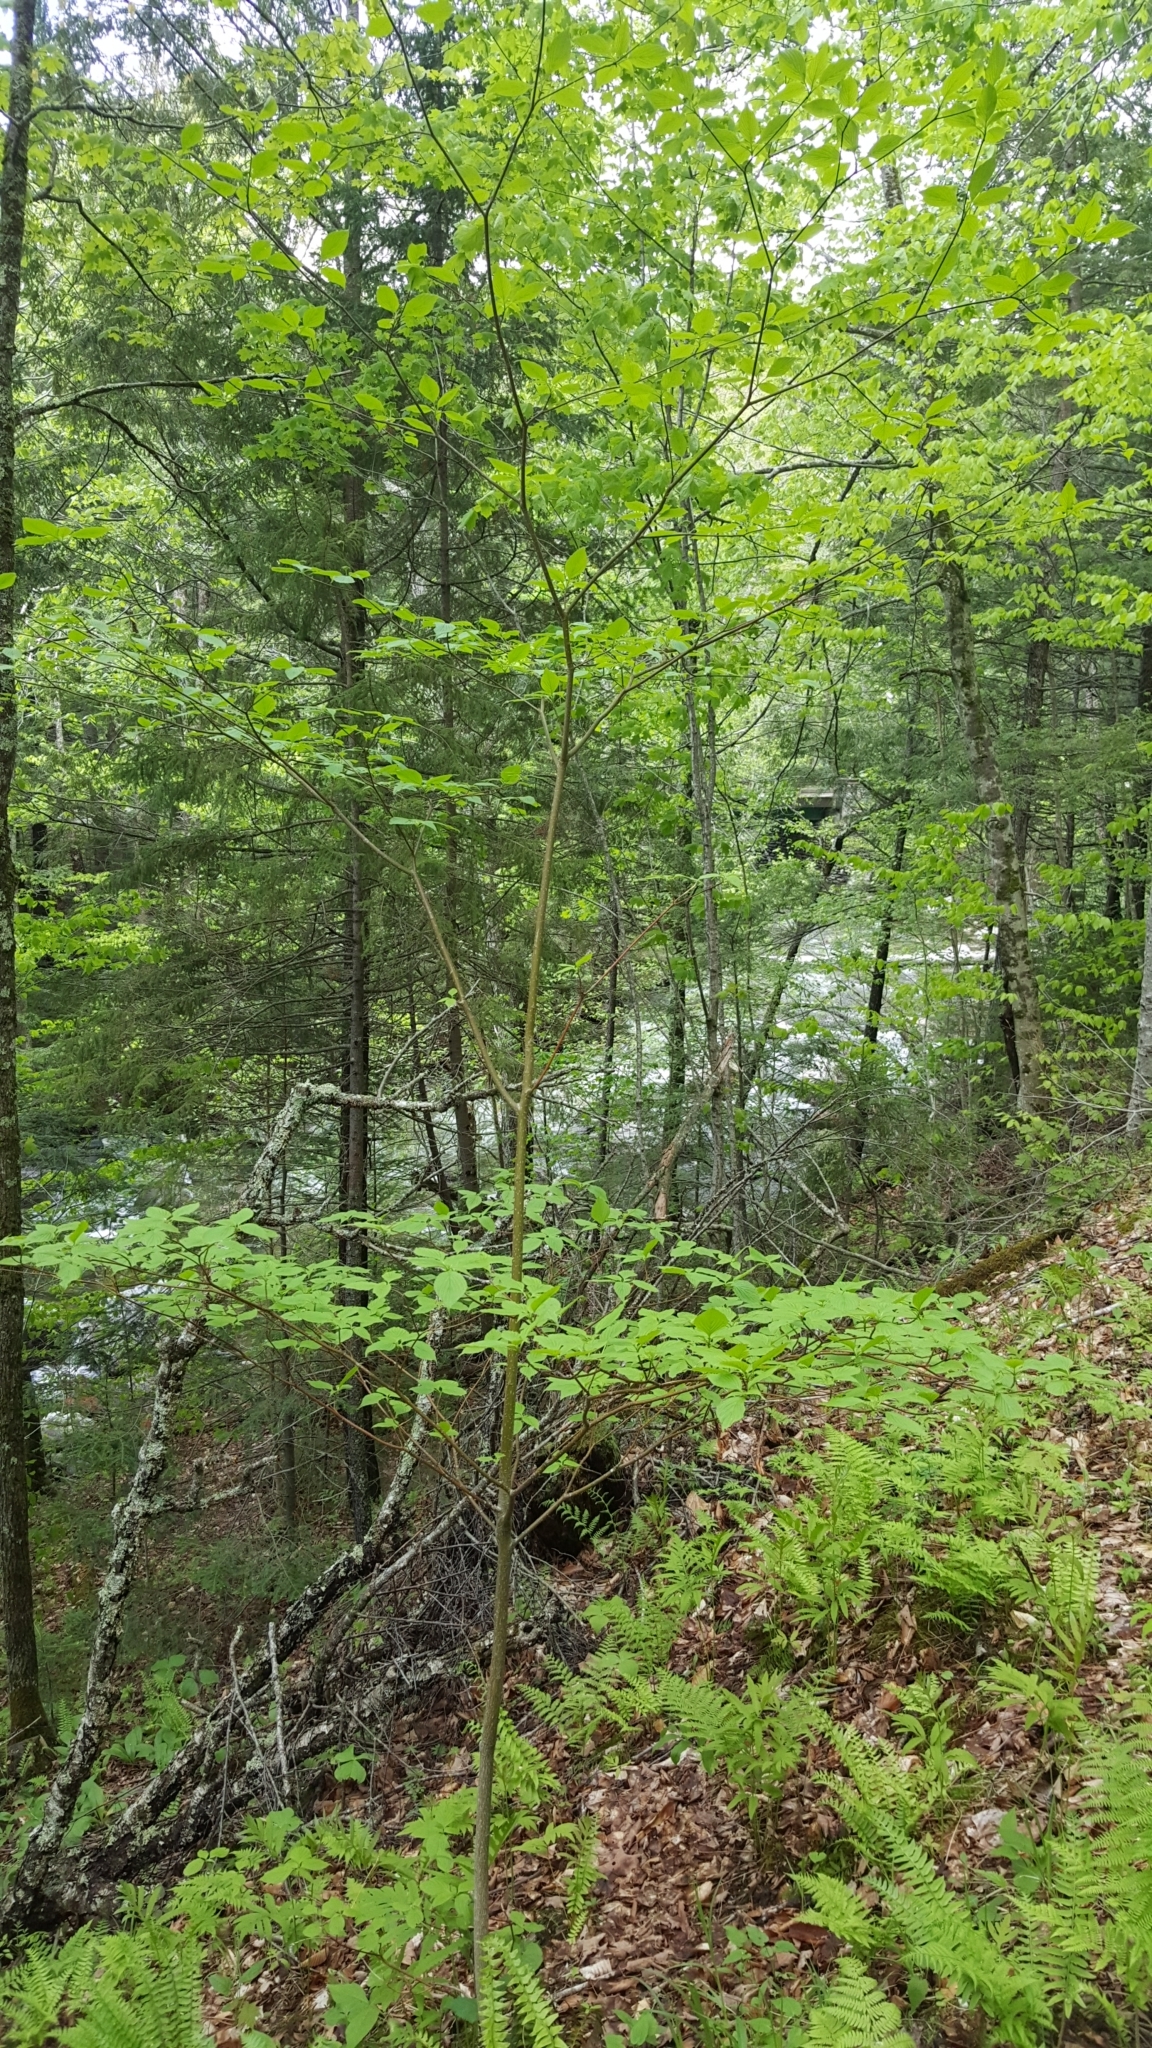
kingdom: Plantae
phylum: Tracheophyta
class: Magnoliopsida
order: Cornales
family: Cornaceae
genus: Cornus
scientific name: Cornus alternifolia
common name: Pagoda dogwood
